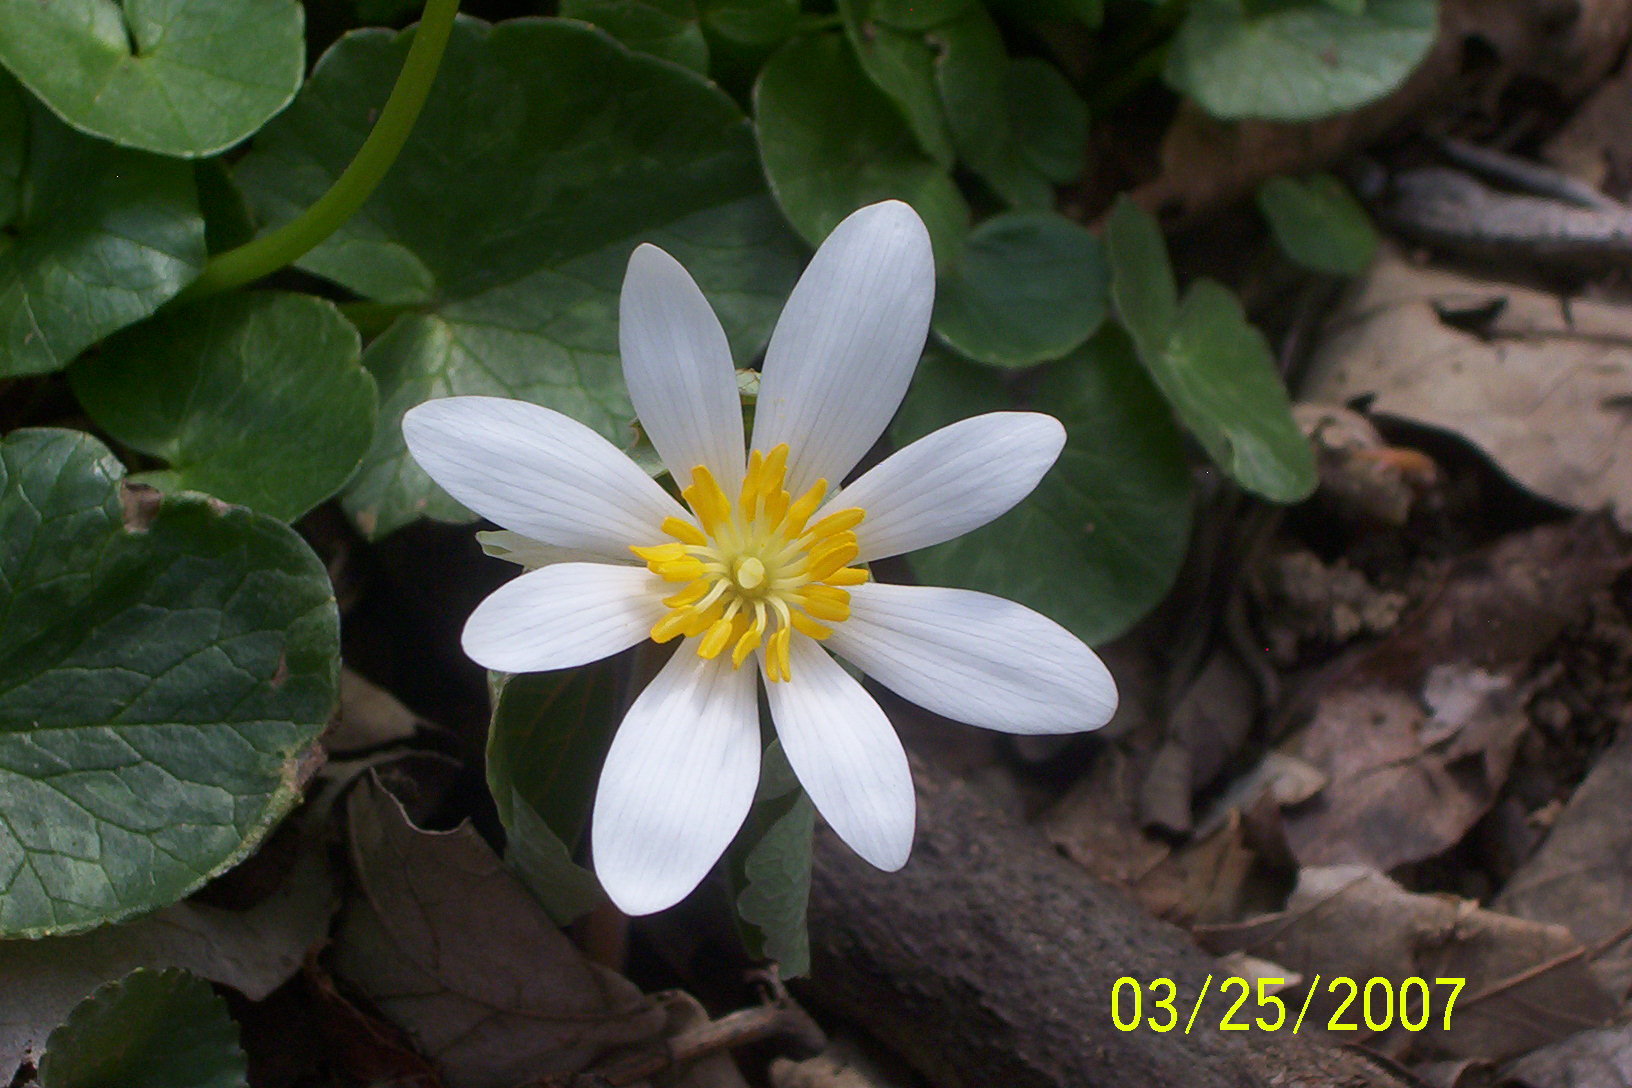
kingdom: Plantae
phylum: Tracheophyta
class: Magnoliopsida
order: Ranunculales
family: Papaveraceae
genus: Sanguinaria
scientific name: Sanguinaria canadensis
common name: Bloodroot
